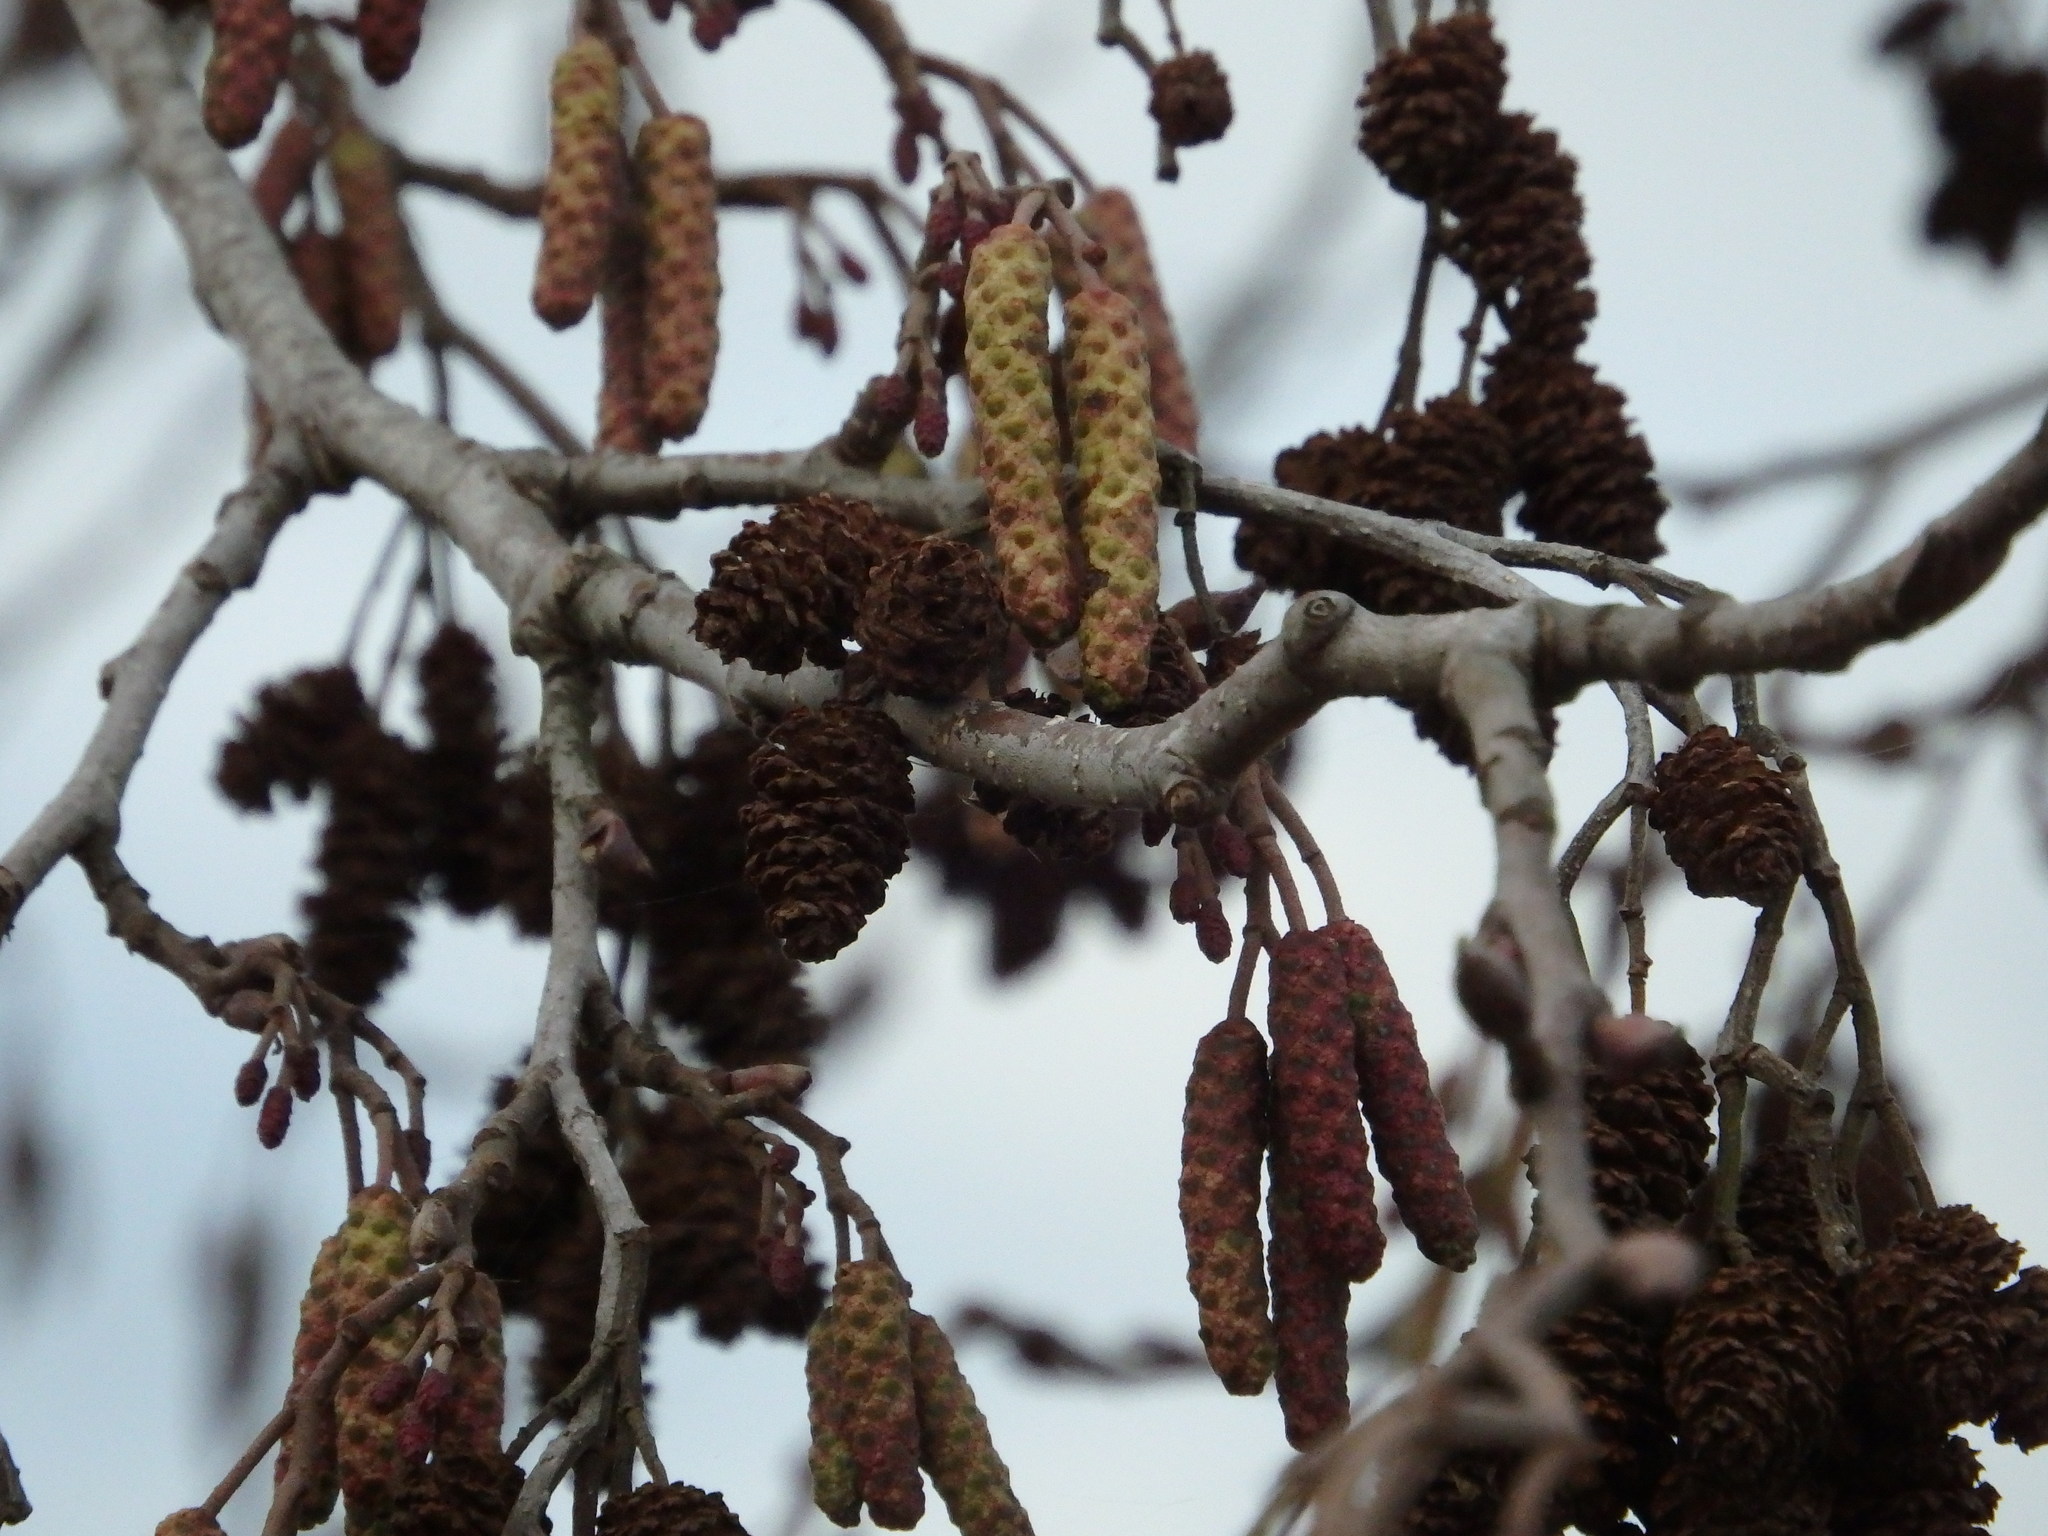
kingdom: Plantae
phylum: Tracheophyta
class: Magnoliopsida
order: Fagales
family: Betulaceae
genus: Alnus
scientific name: Alnus lusitanica
